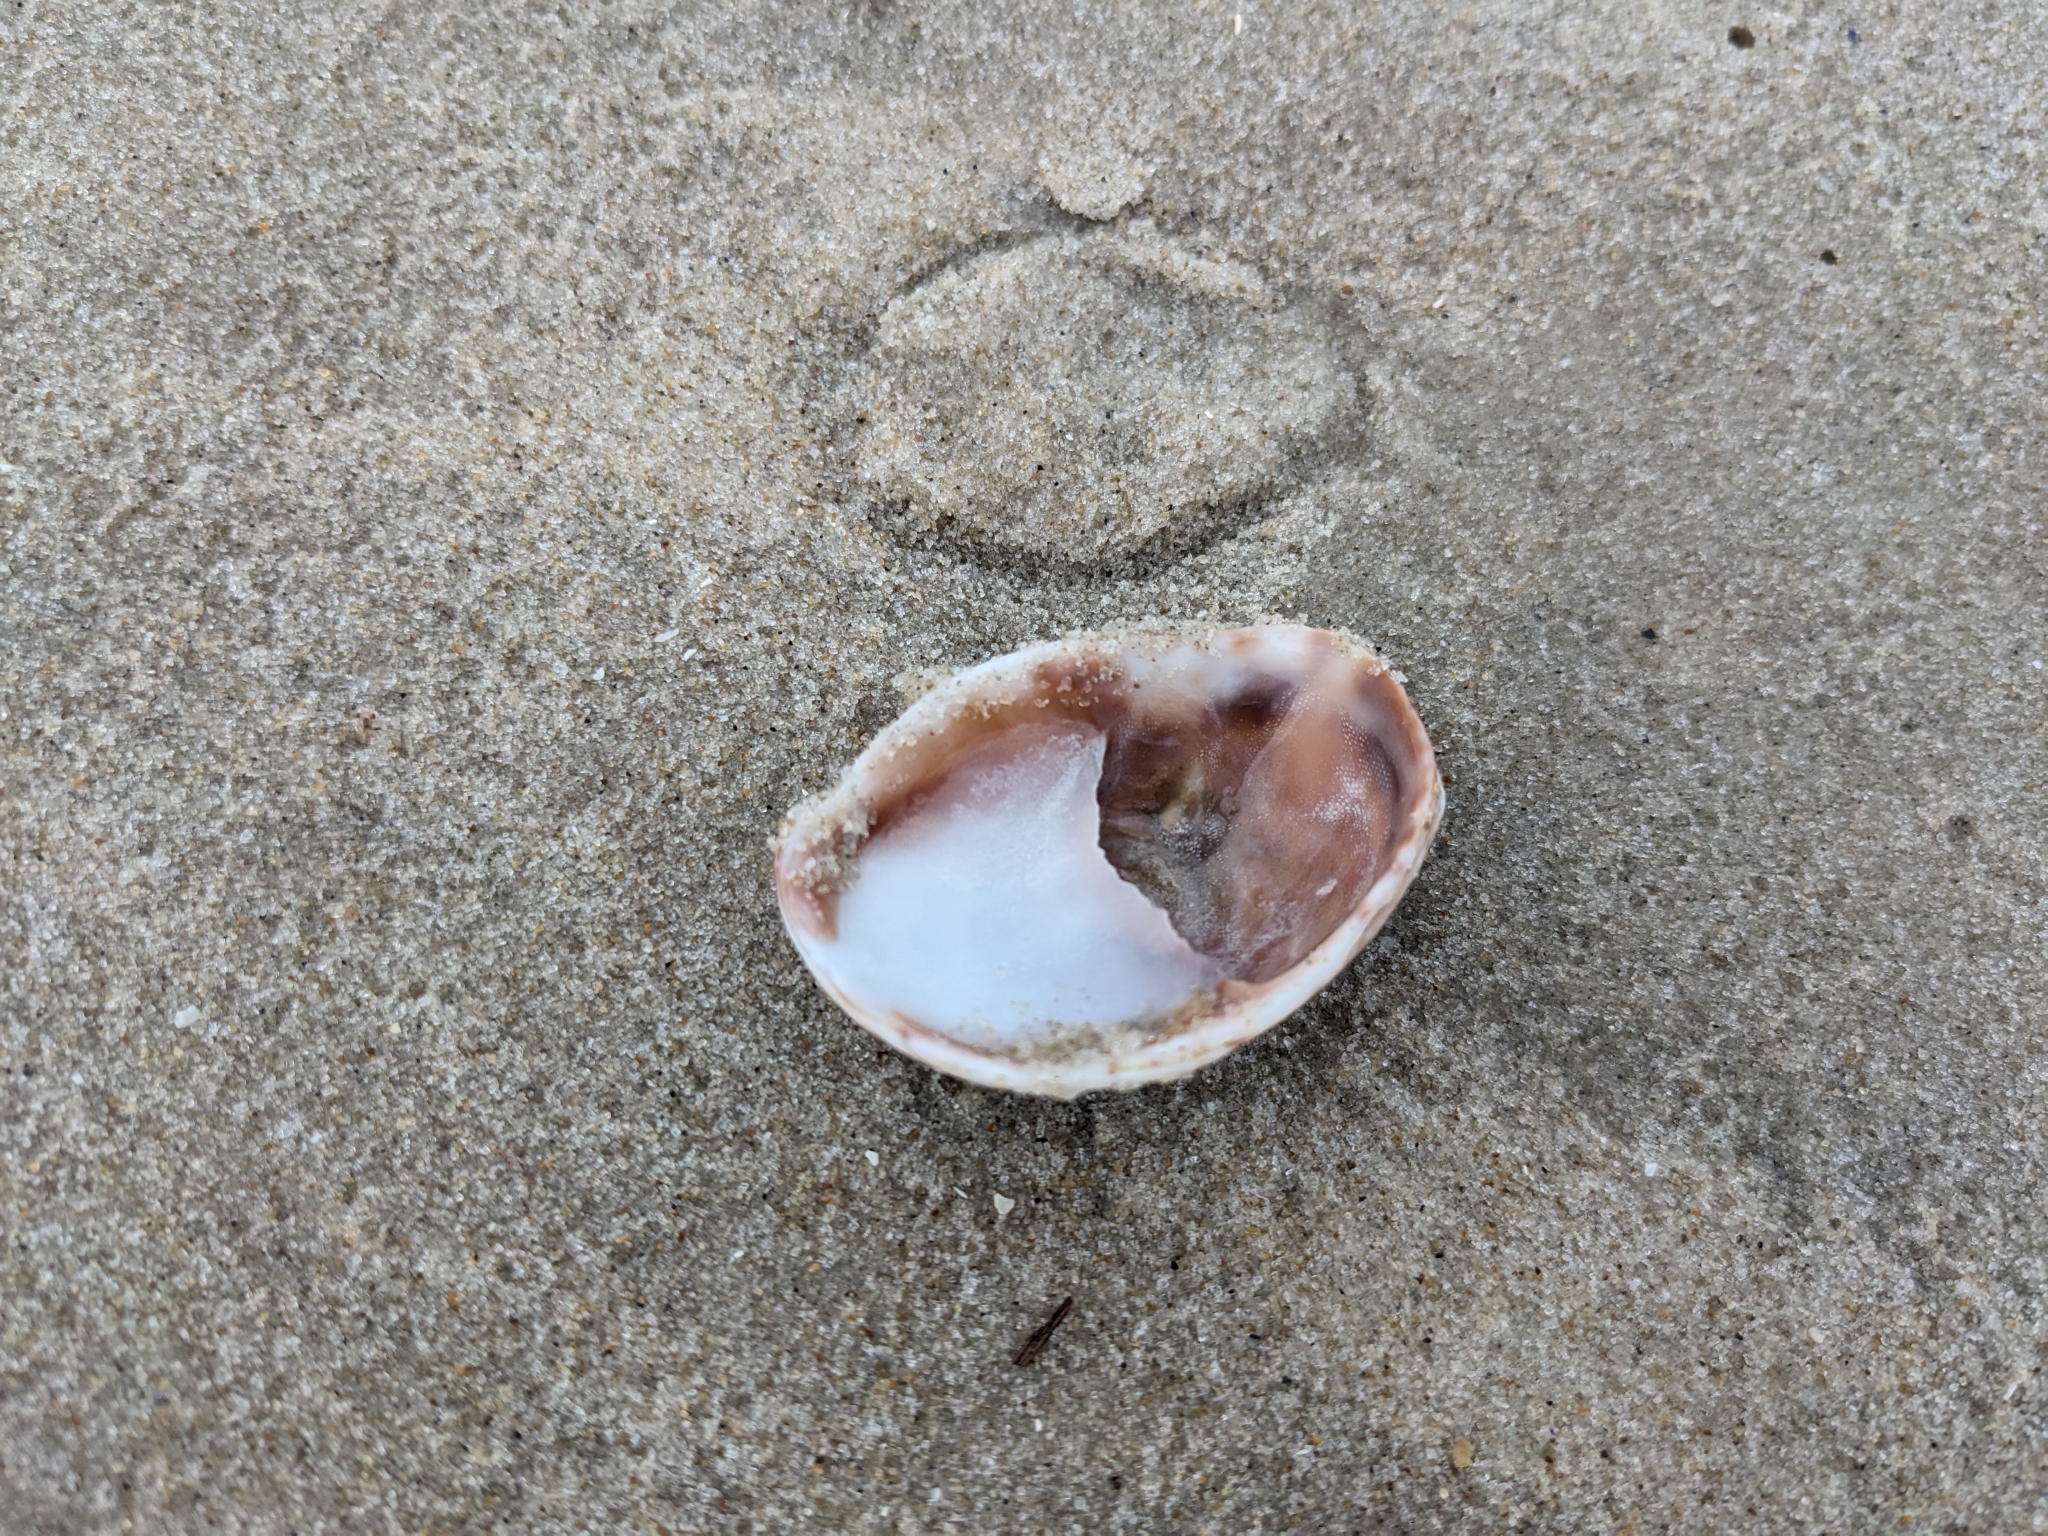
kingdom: Animalia
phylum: Mollusca
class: Gastropoda
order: Littorinimorpha
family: Calyptraeidae
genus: Crepidula
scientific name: Crepidula fornicata
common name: Slipper limpet
